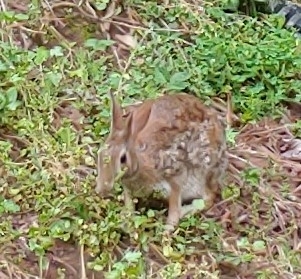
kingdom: Animalia
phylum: Chordata
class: Mammalia
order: Lagomorpha
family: Leporidae
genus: Sylvilagus
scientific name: Sylvilagus floridanus
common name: Eastern cottontail
